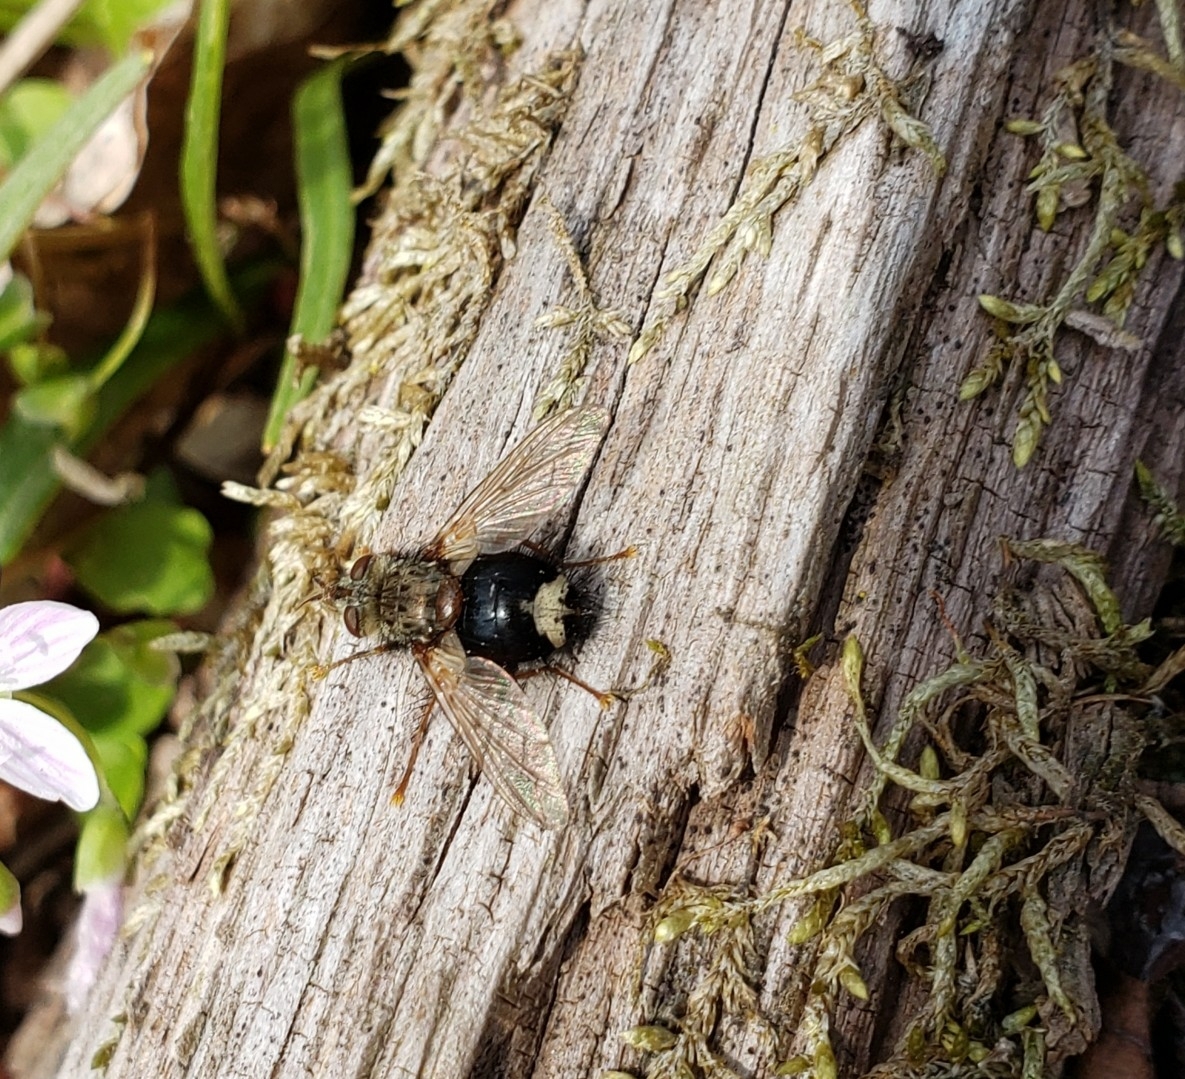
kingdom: Animalia
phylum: Arthropoda
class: Insecta
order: Diptera
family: Tachinidae
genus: Epalpus
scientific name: Epalpus signifer
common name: Early tachinid fly
